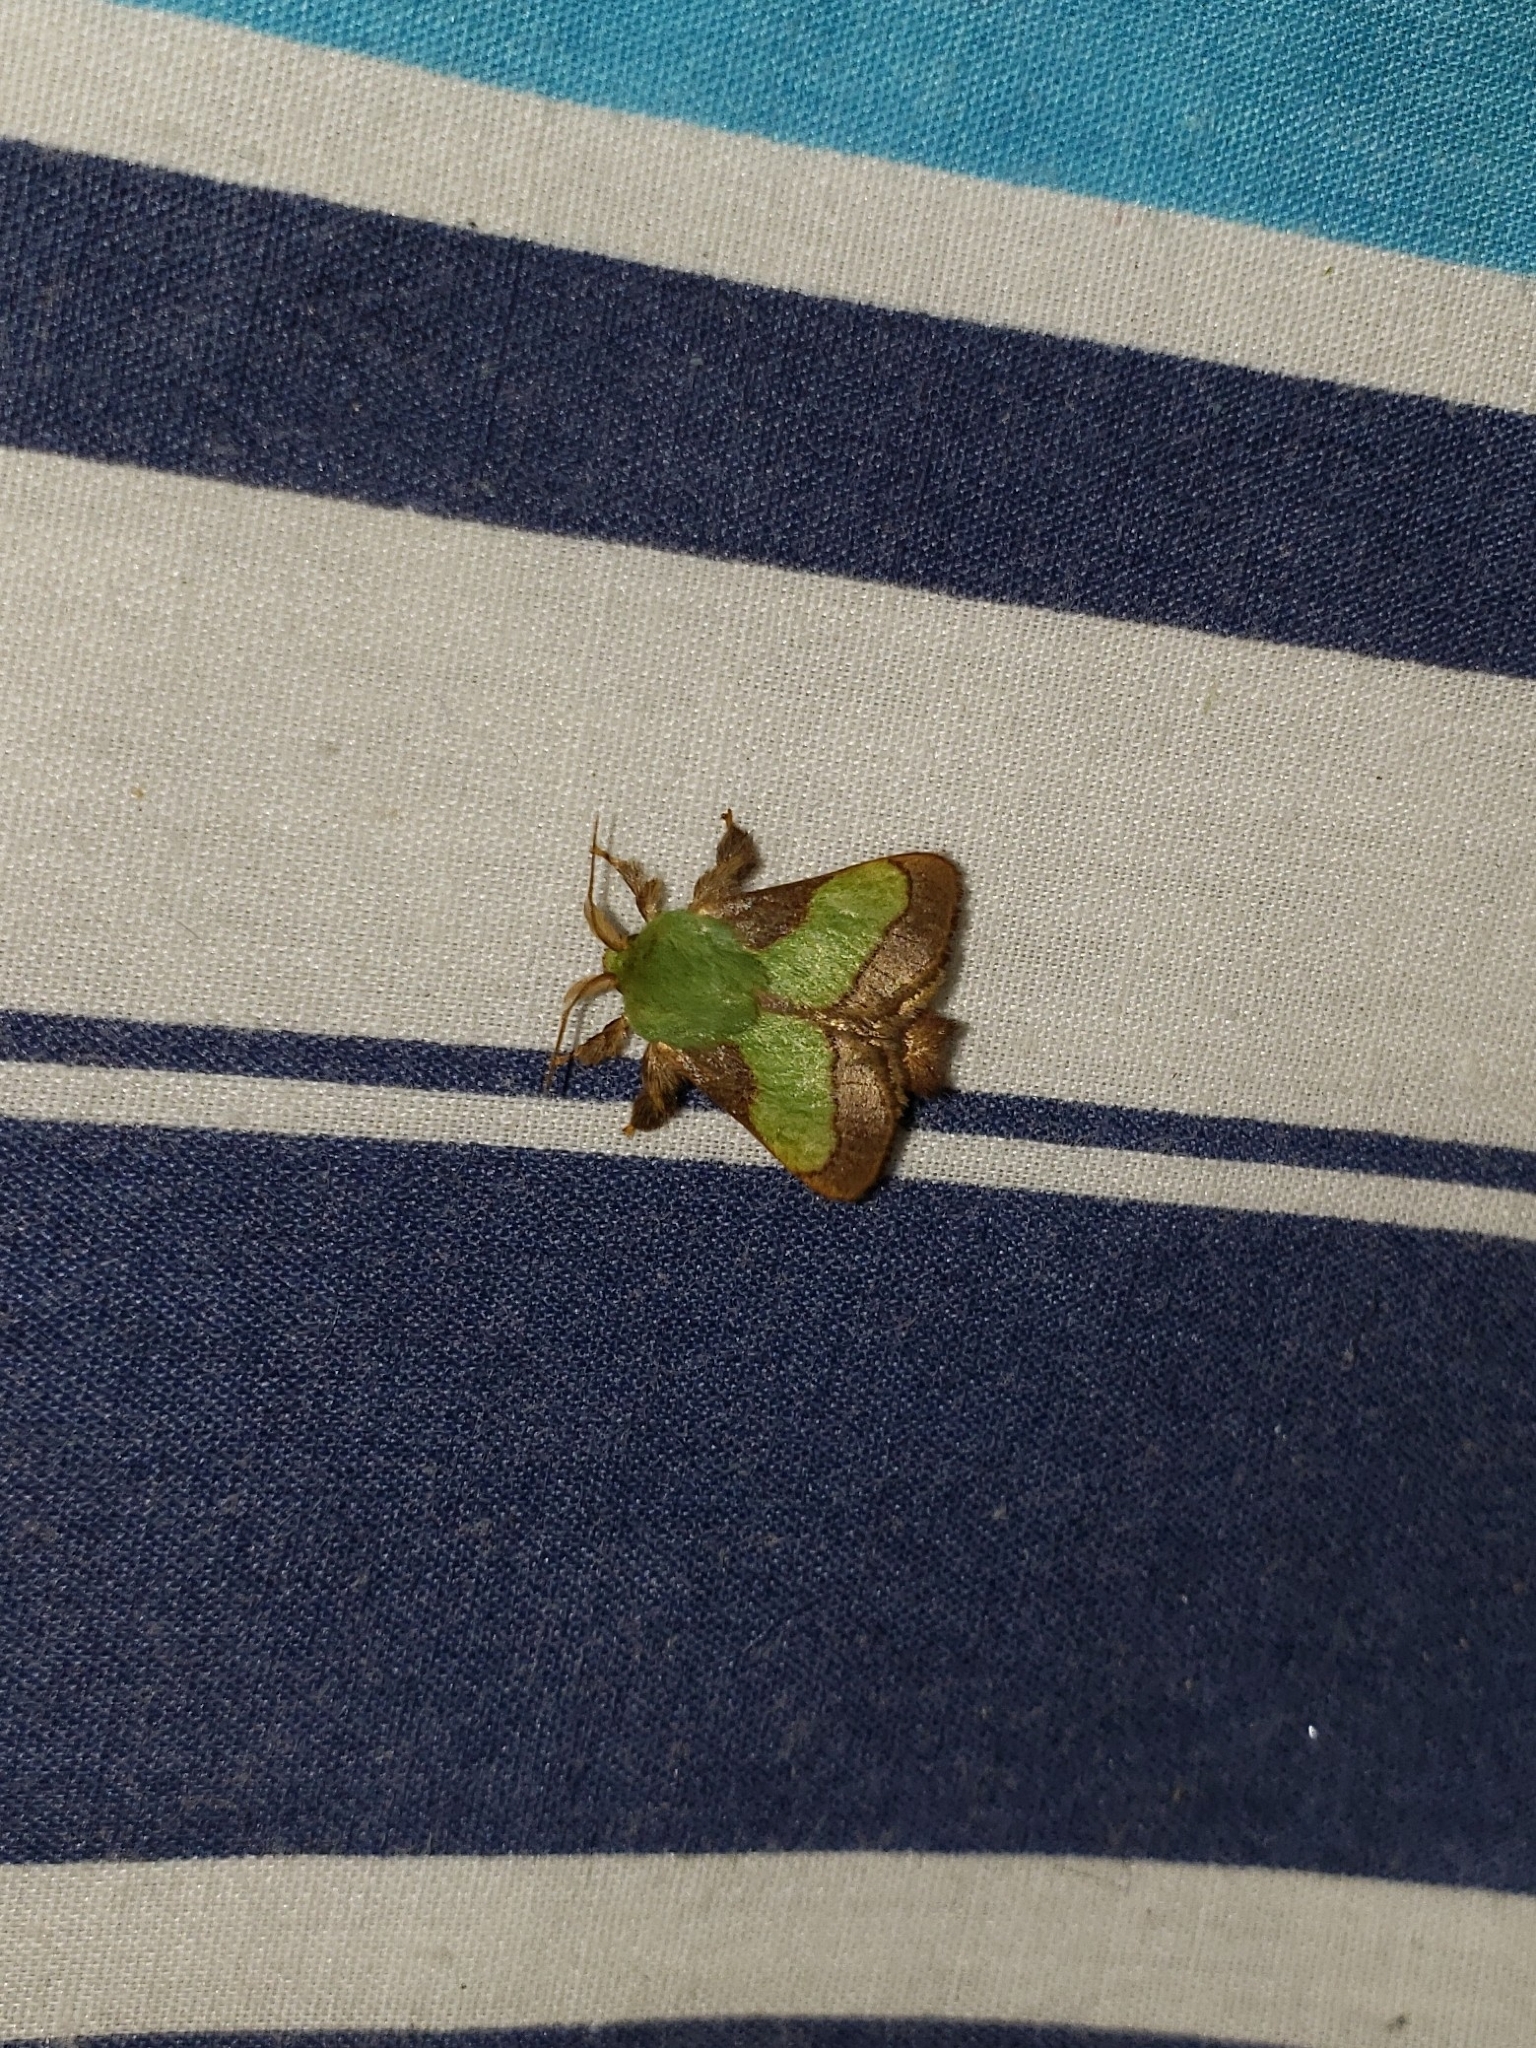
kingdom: Animalia
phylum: Arthropoda
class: Insecta
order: Lepidoptera
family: Limacodidae
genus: Parasa
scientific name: Parasa chloris
